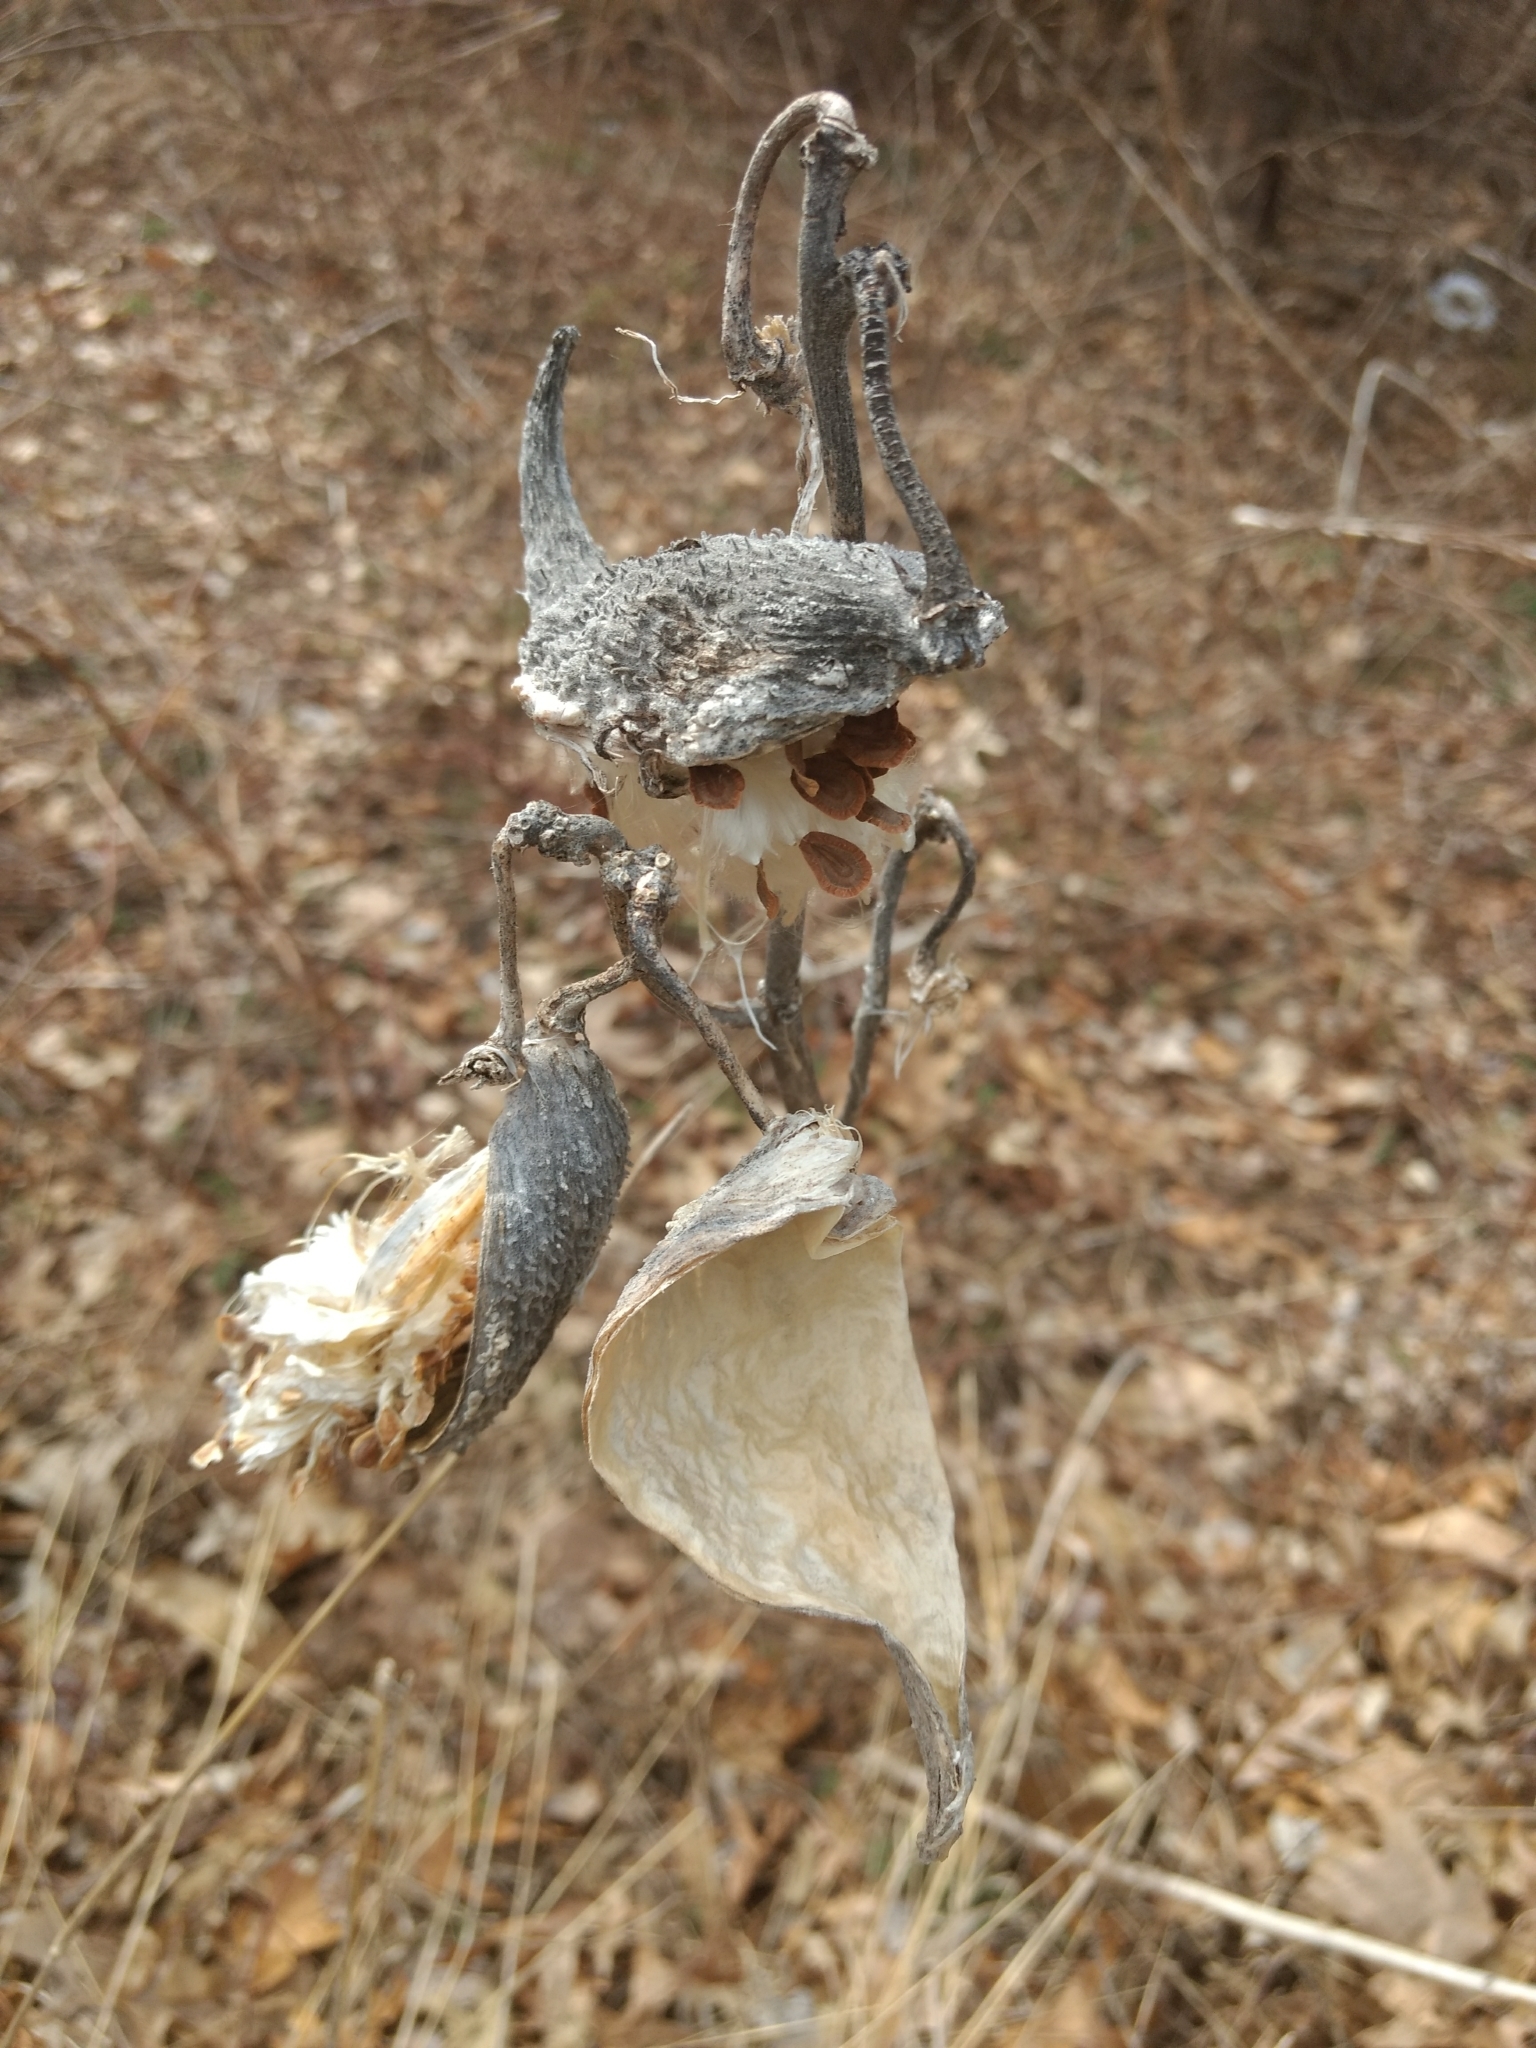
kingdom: Plantae
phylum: Tracheophyta
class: Magnoliopsida
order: Gentianales
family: Apocynaceae
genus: Asclepias
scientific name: Asclepias syriaca
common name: Common milkweed
